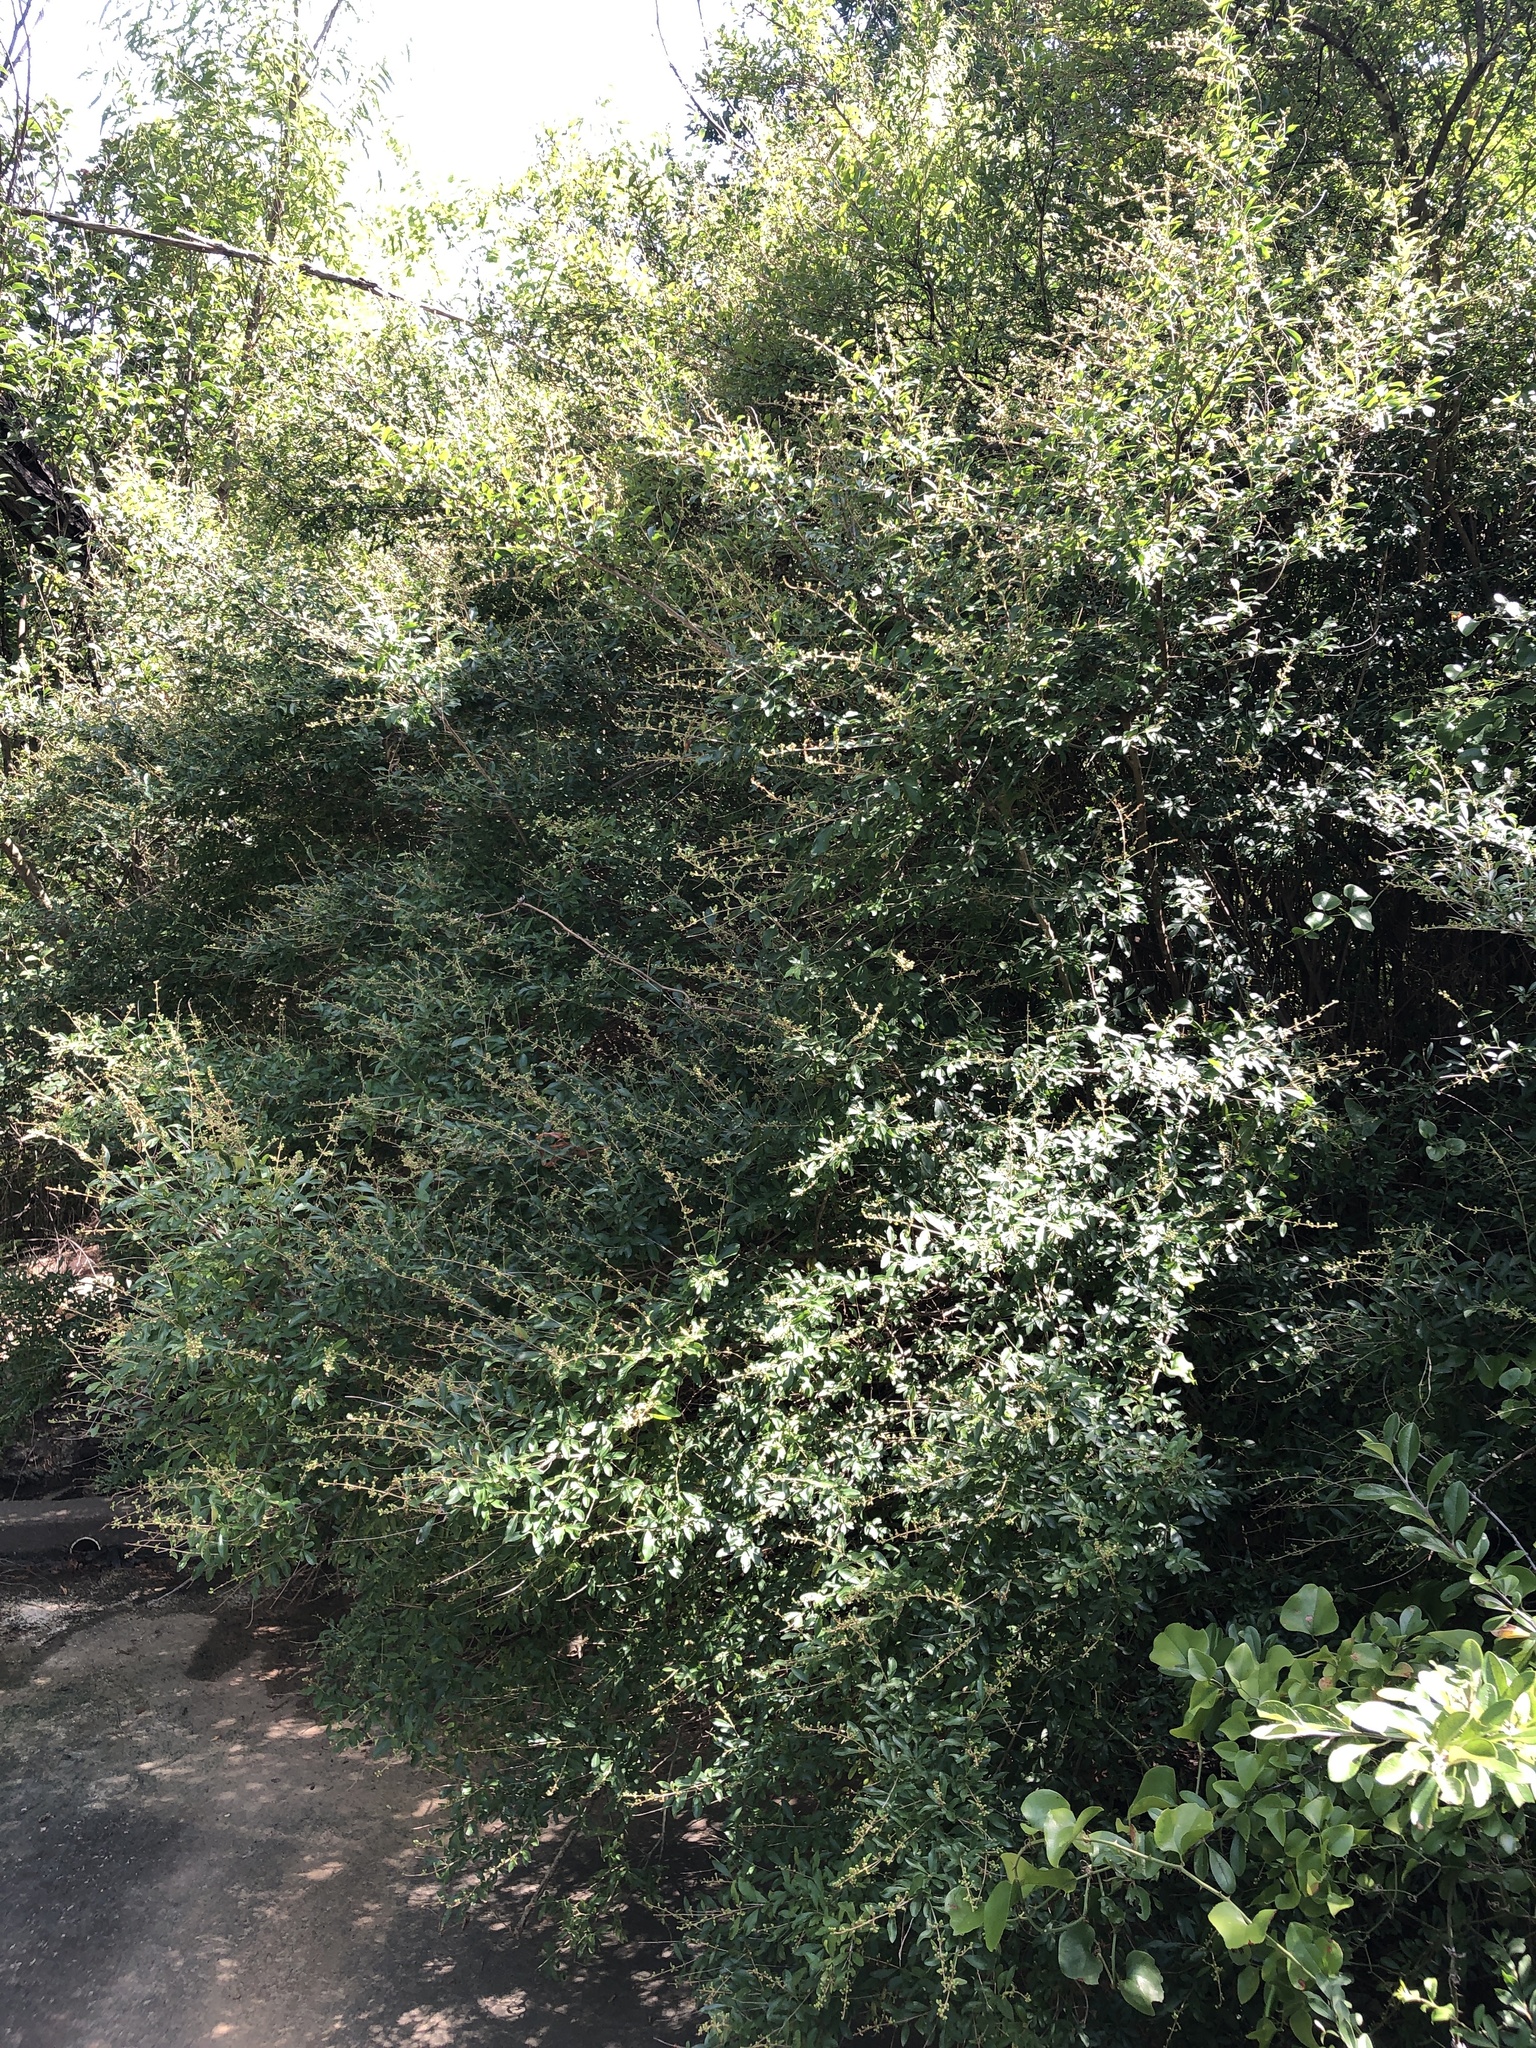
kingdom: Plantae
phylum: Tracheophyta
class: Magnoliopsida
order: Lamiales
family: Oleaceae
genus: Ligustrum
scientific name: Ligustrum quihoui
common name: Waxyleaf privet
